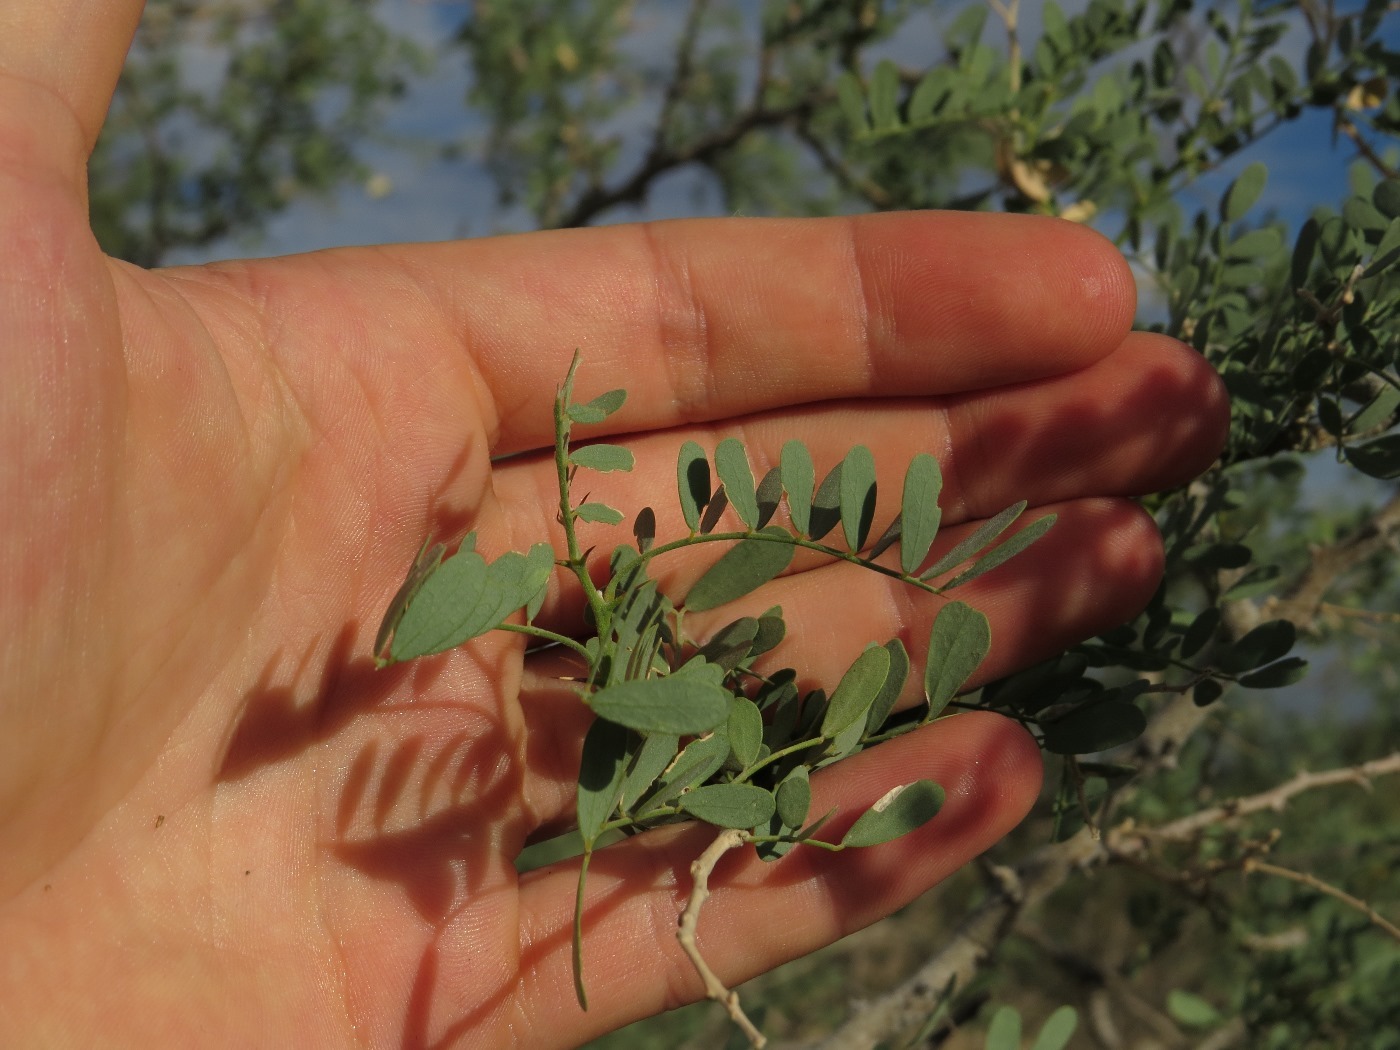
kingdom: Plantae
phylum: Tracheophyta
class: Magnoliopsida
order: Fabales
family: Fabaceae
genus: Olneya
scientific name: Olneya tesota
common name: Desert ironwood
